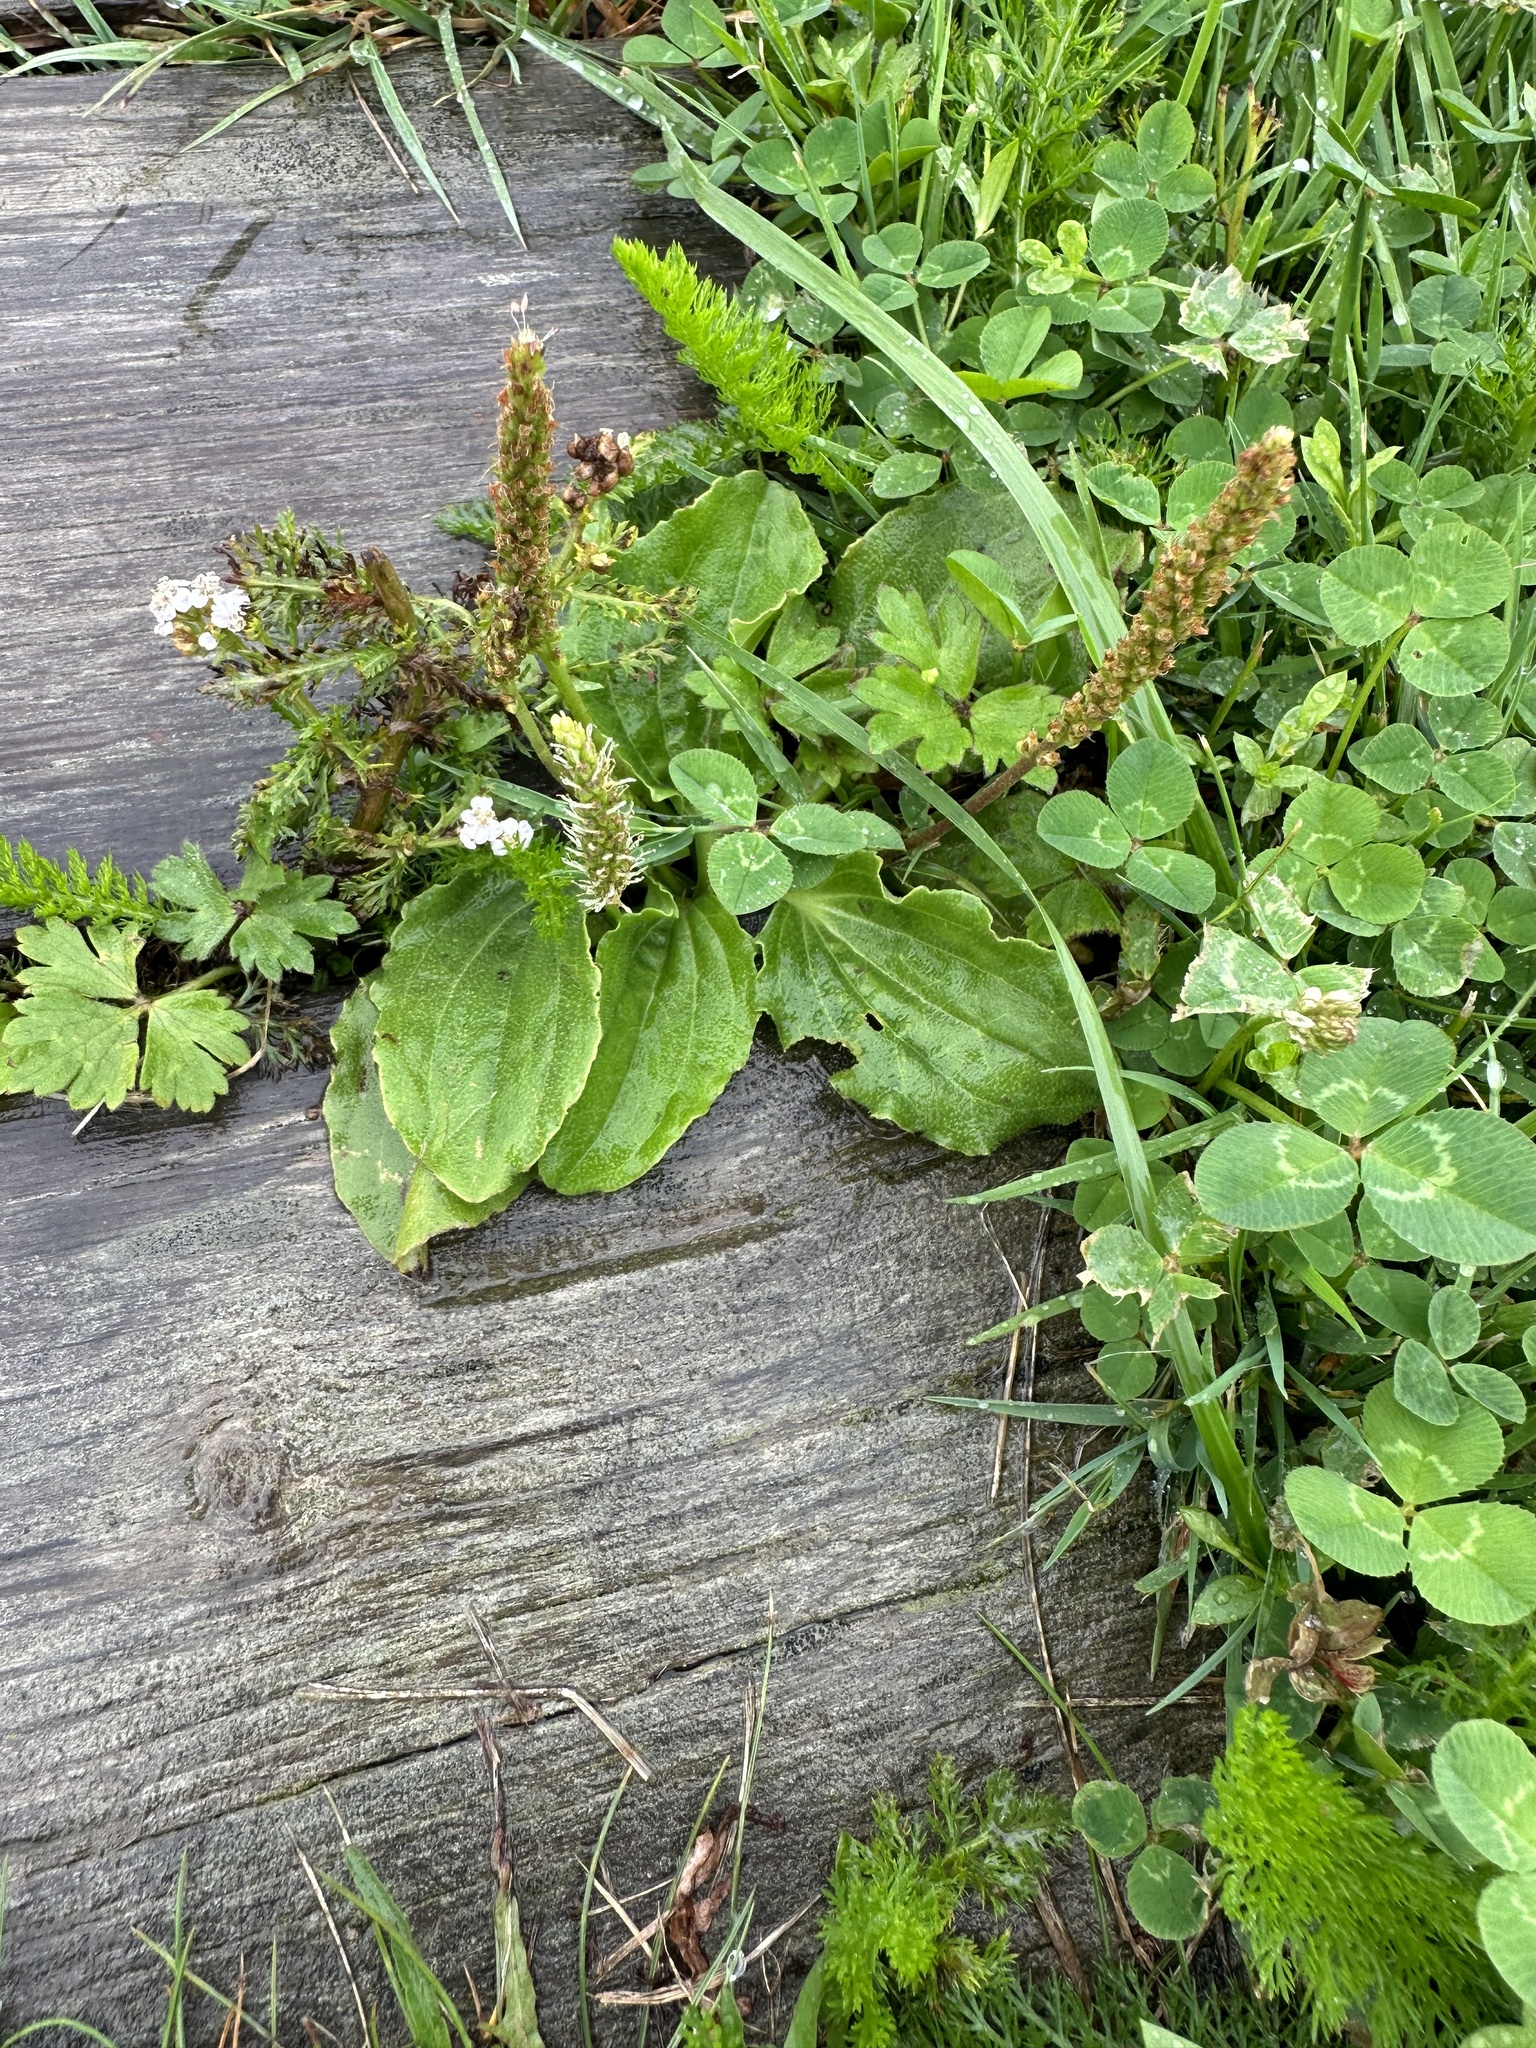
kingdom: Plantae
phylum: Tracheophyta
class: Magnoliopsida
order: Lamiales
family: Plantaginaceae
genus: Plantago
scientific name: Plantago major
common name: Common plantain
